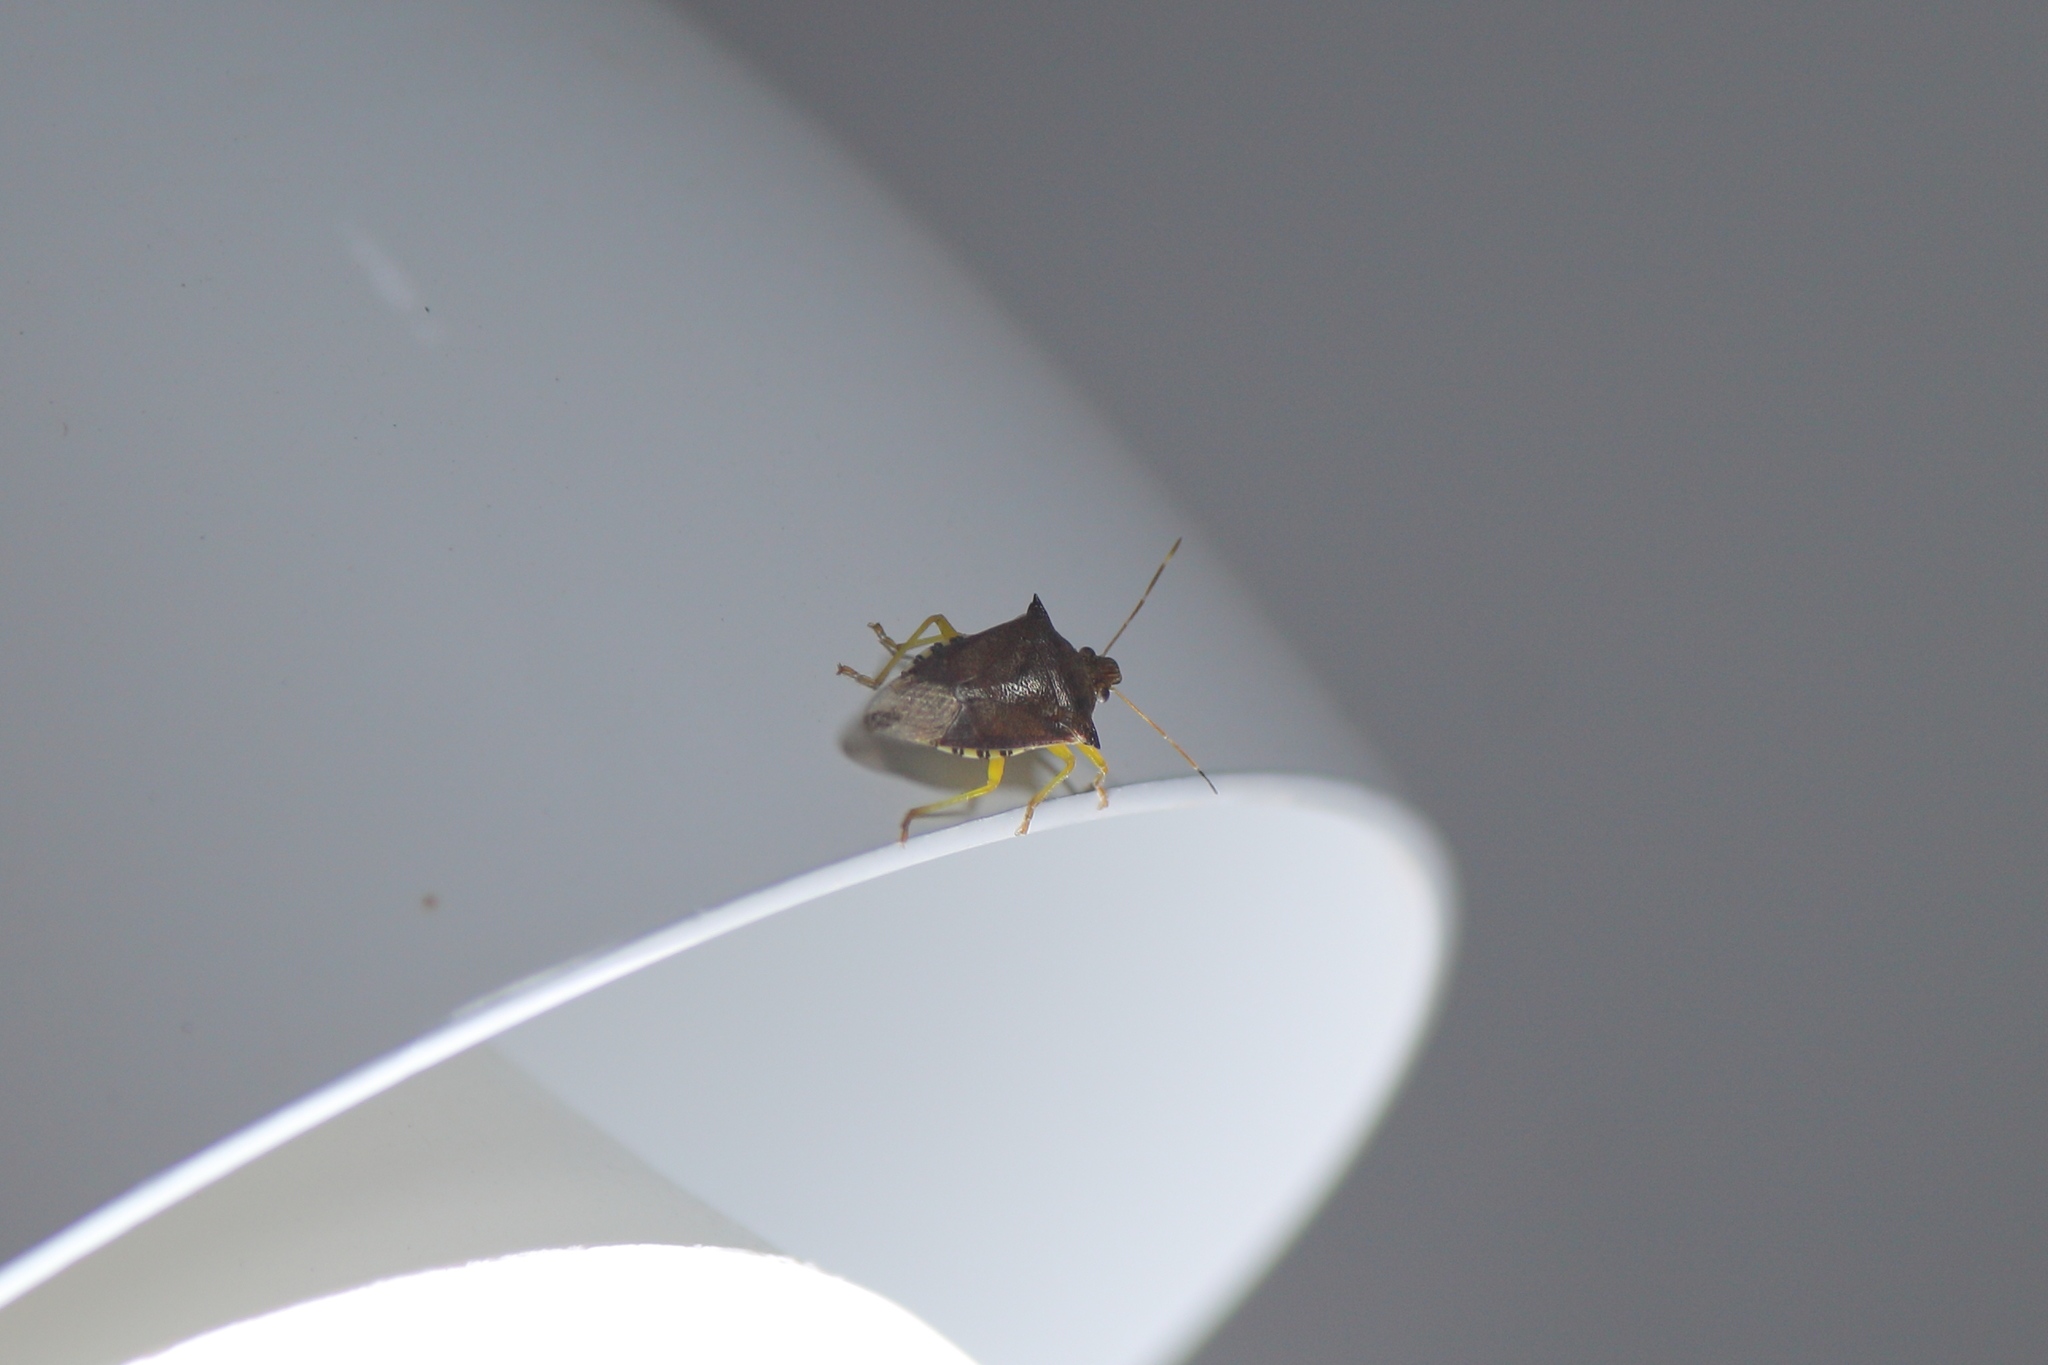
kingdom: Animalia
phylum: Arthropoda
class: Insecta
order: Hemiptera
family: Pentatomidae
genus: Podisus
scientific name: Podisus nigrispinus
